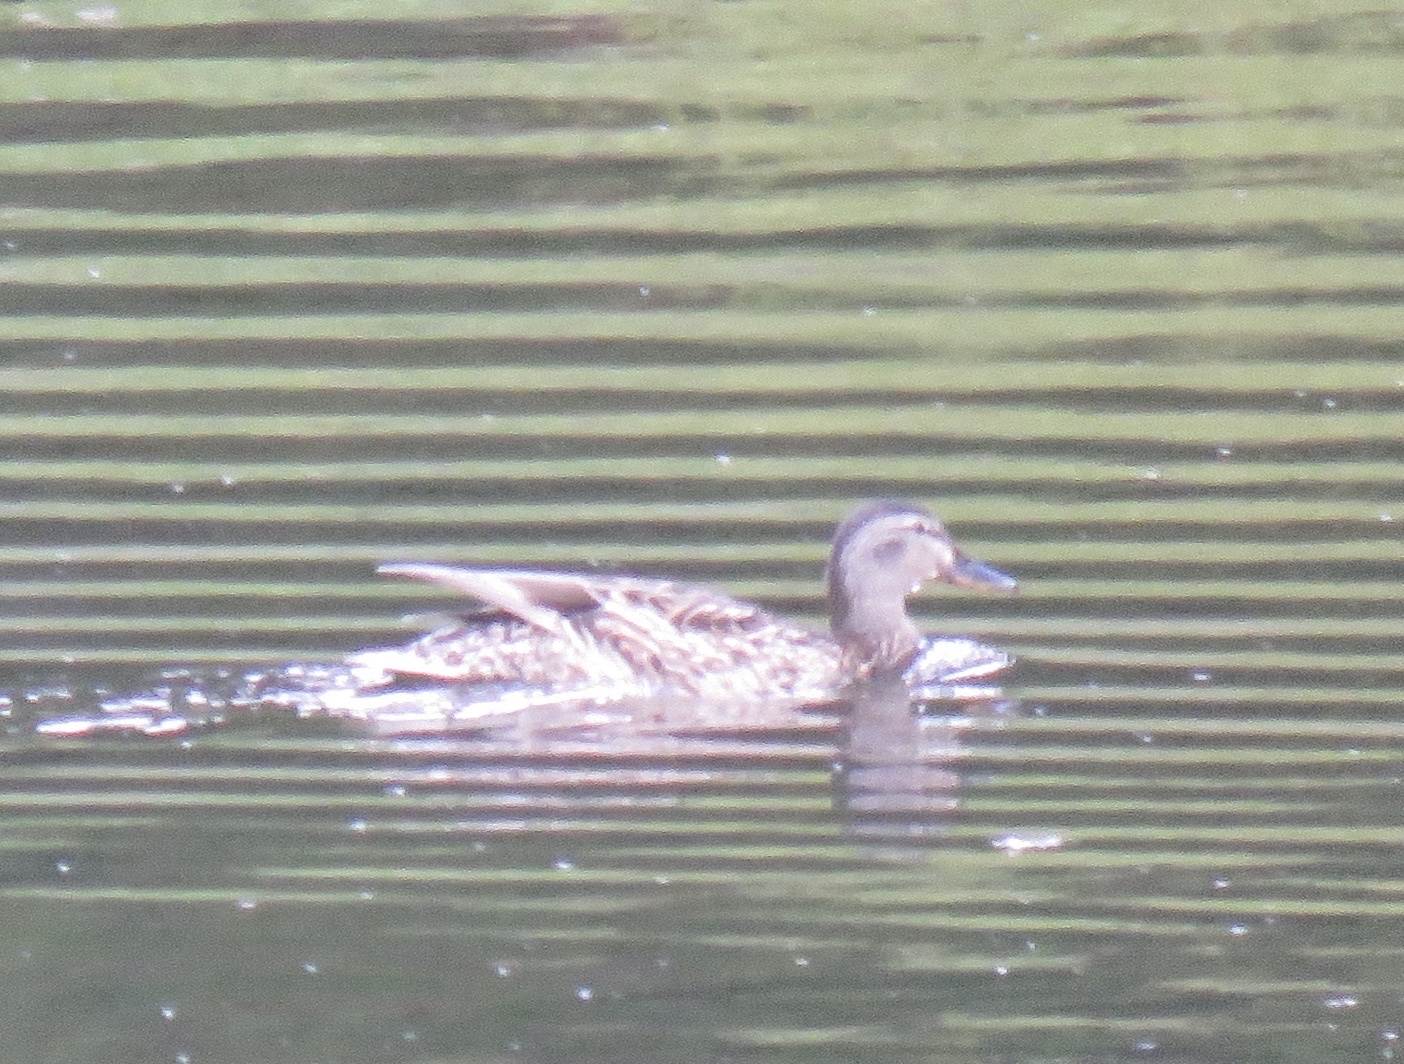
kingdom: Animalia
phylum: Chordata
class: Aves
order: Anseriformes
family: Anatidae
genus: Anas
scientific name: Anas platyrhynchos
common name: Mallard
